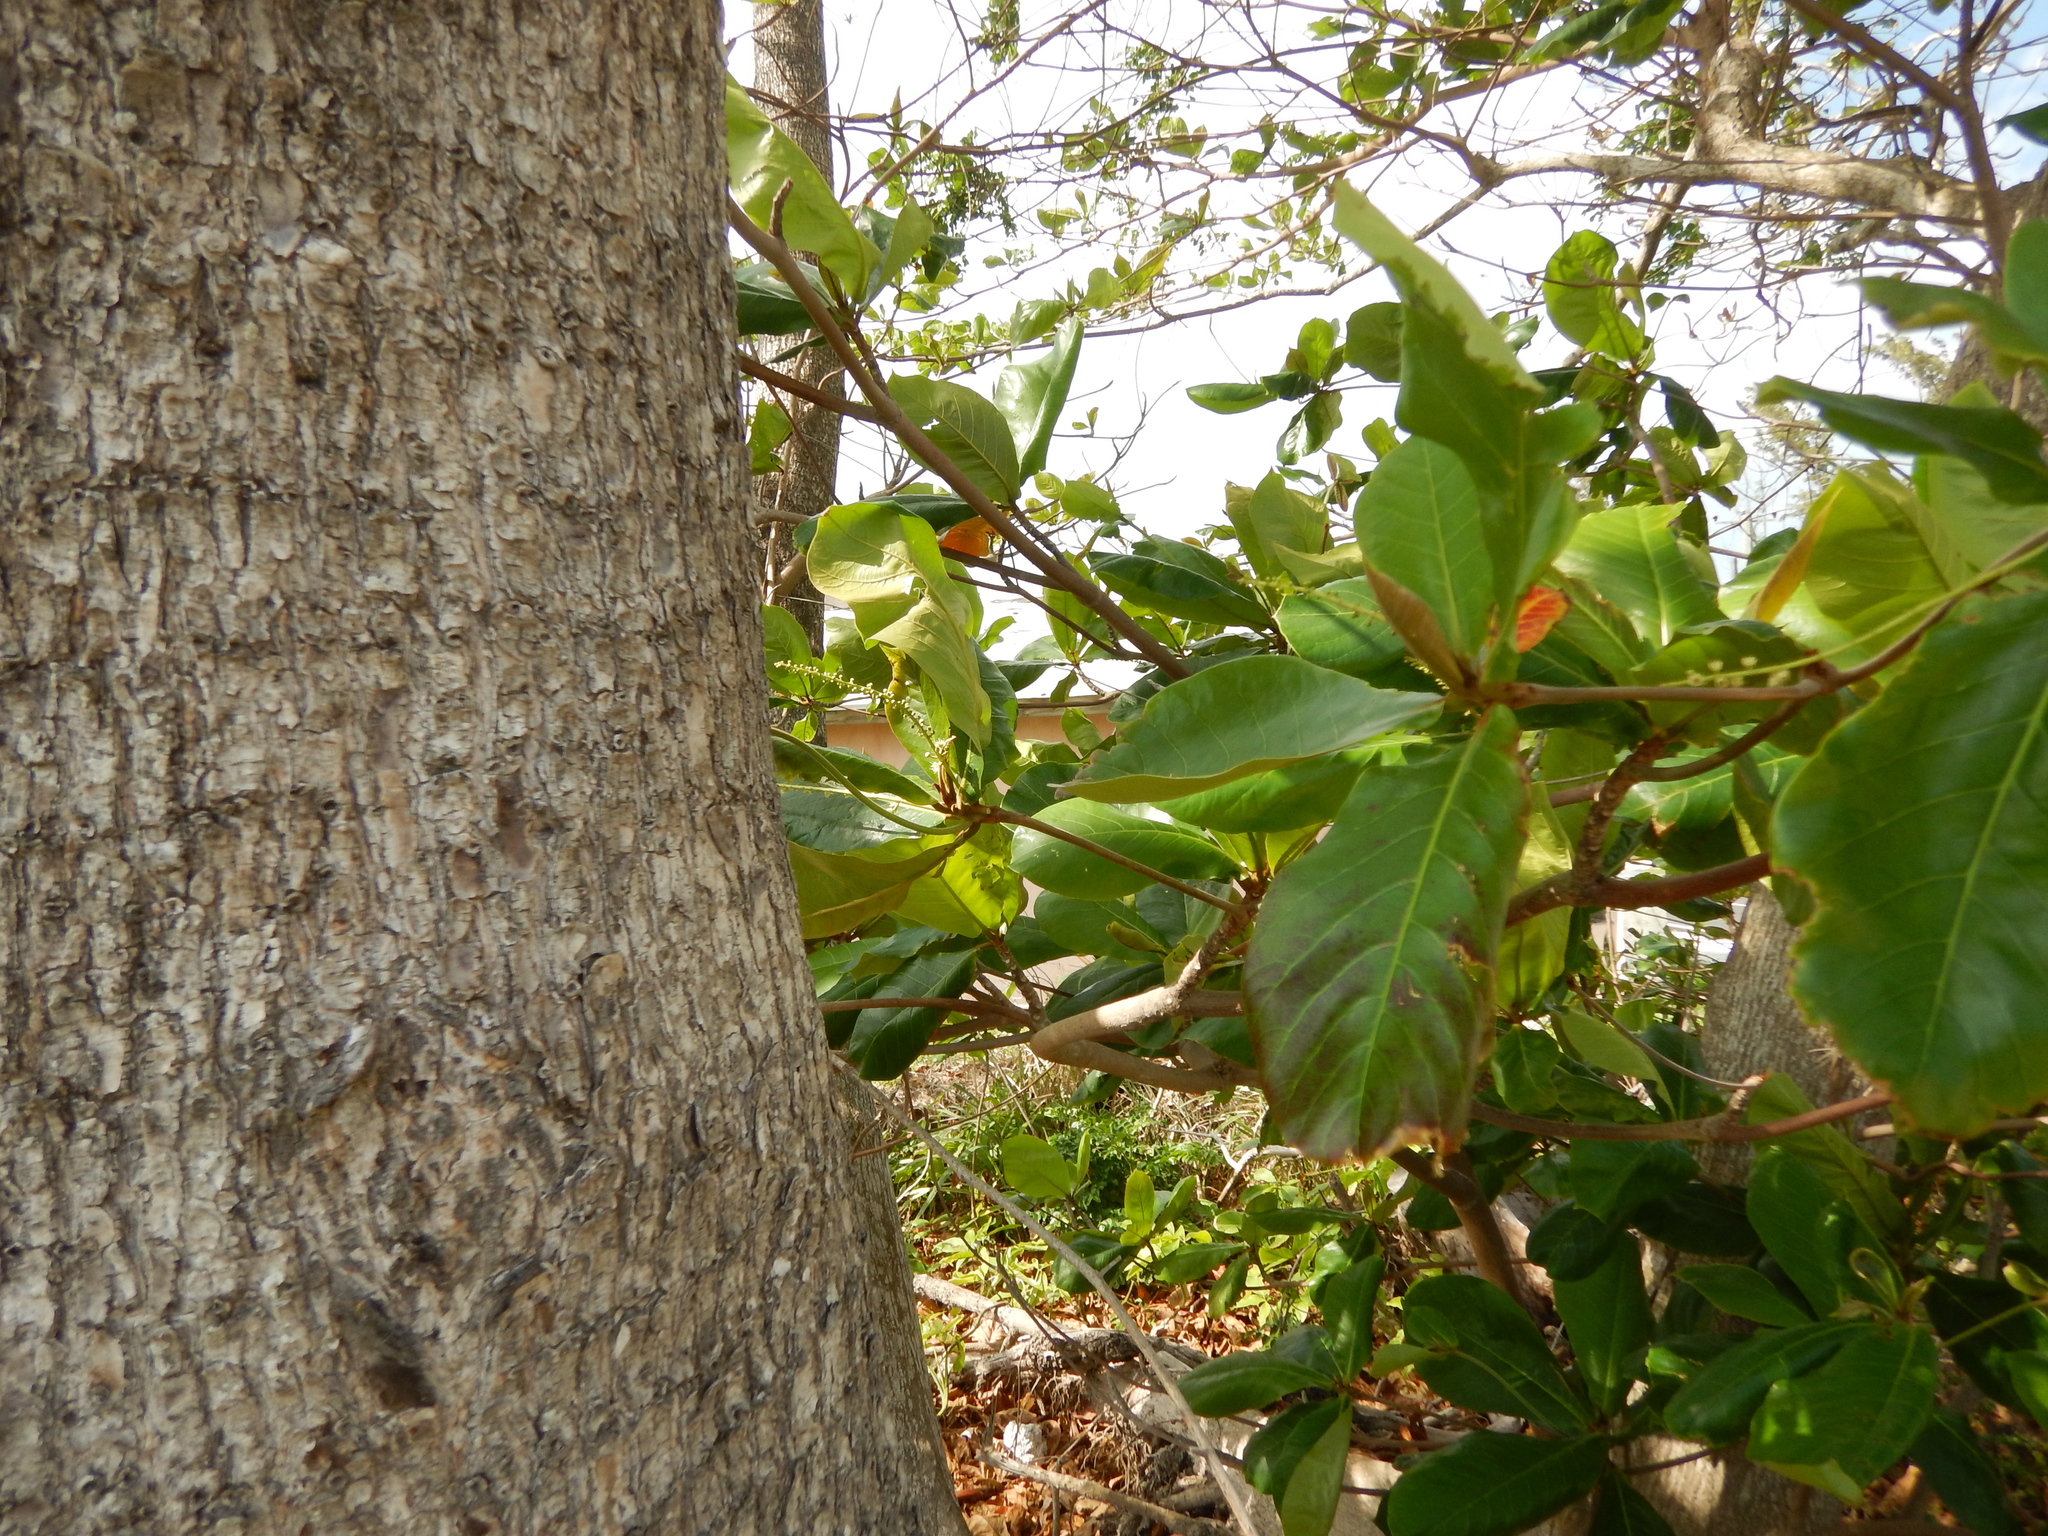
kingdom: Plantae
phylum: Tracheophyta
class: Magnoliopsida
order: Myrtales
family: Combretaceae
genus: Terminalia
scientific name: Terminalia catappa
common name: Tropical almond
